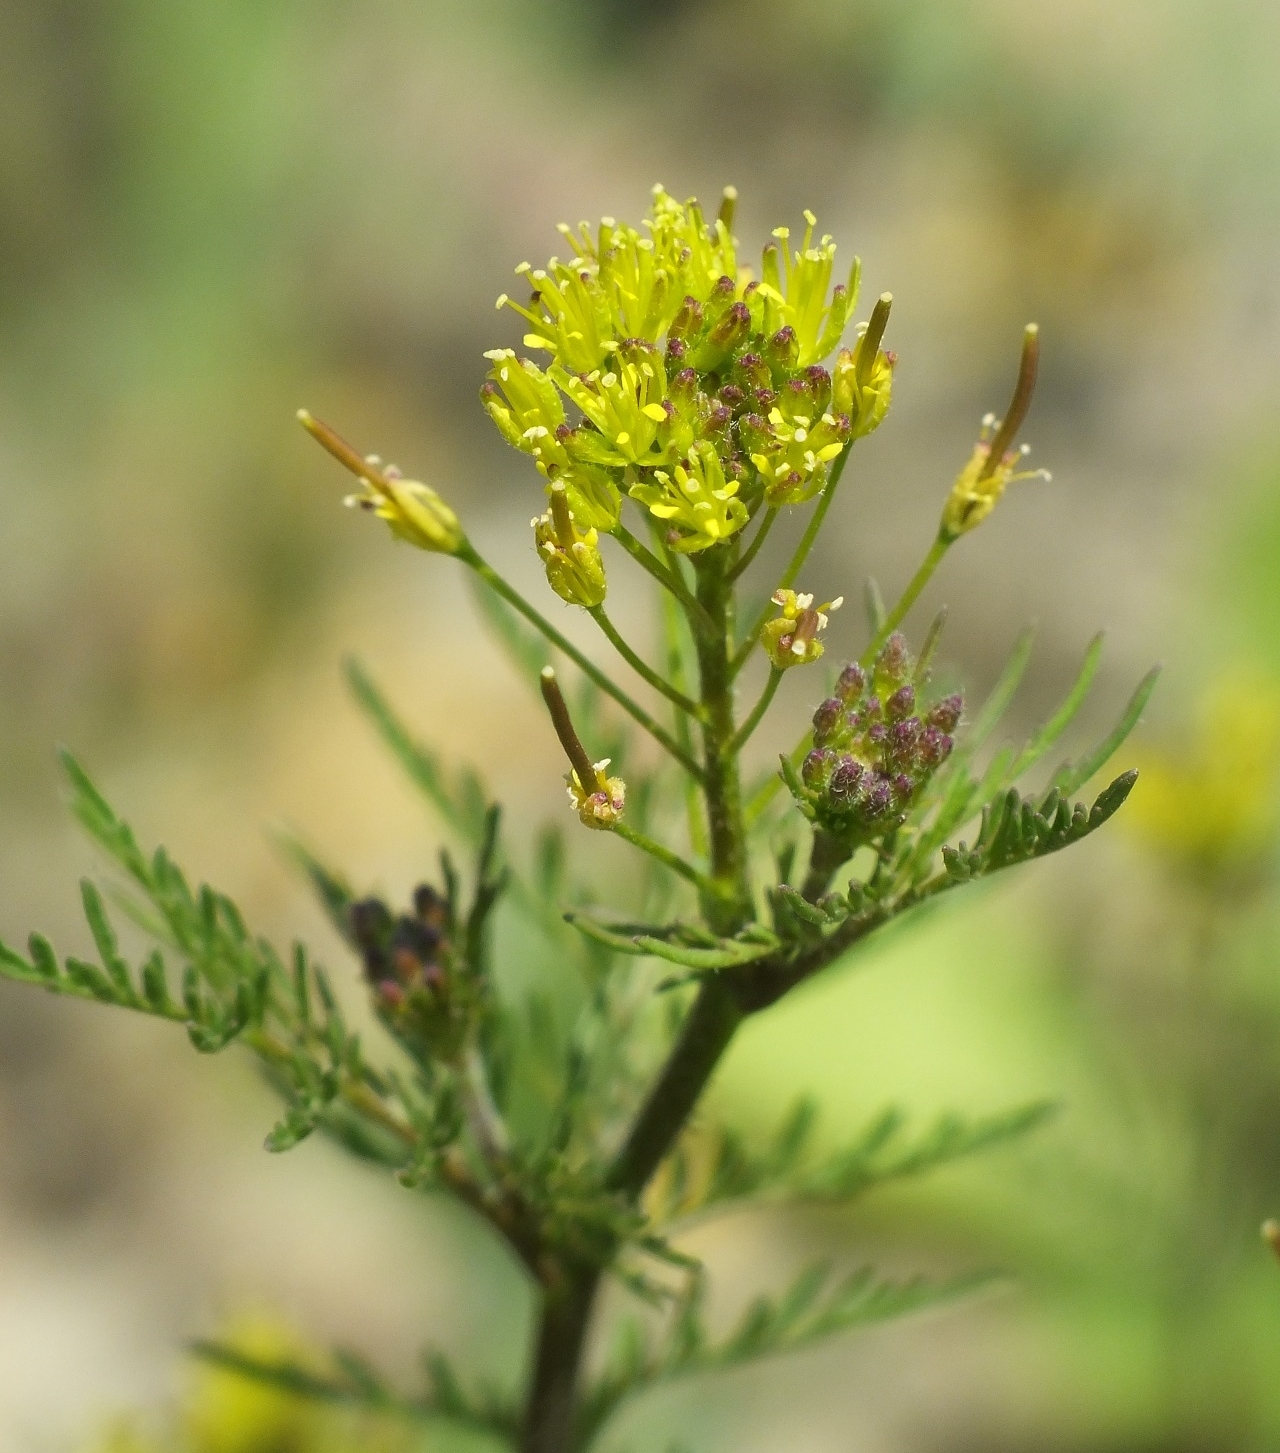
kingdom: Plantae
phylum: Tracheophyta
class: Magnoliopsida
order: Brassicales
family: Brassicaceae
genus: Descurainia
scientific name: Descurainia sophia
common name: Flixweed
